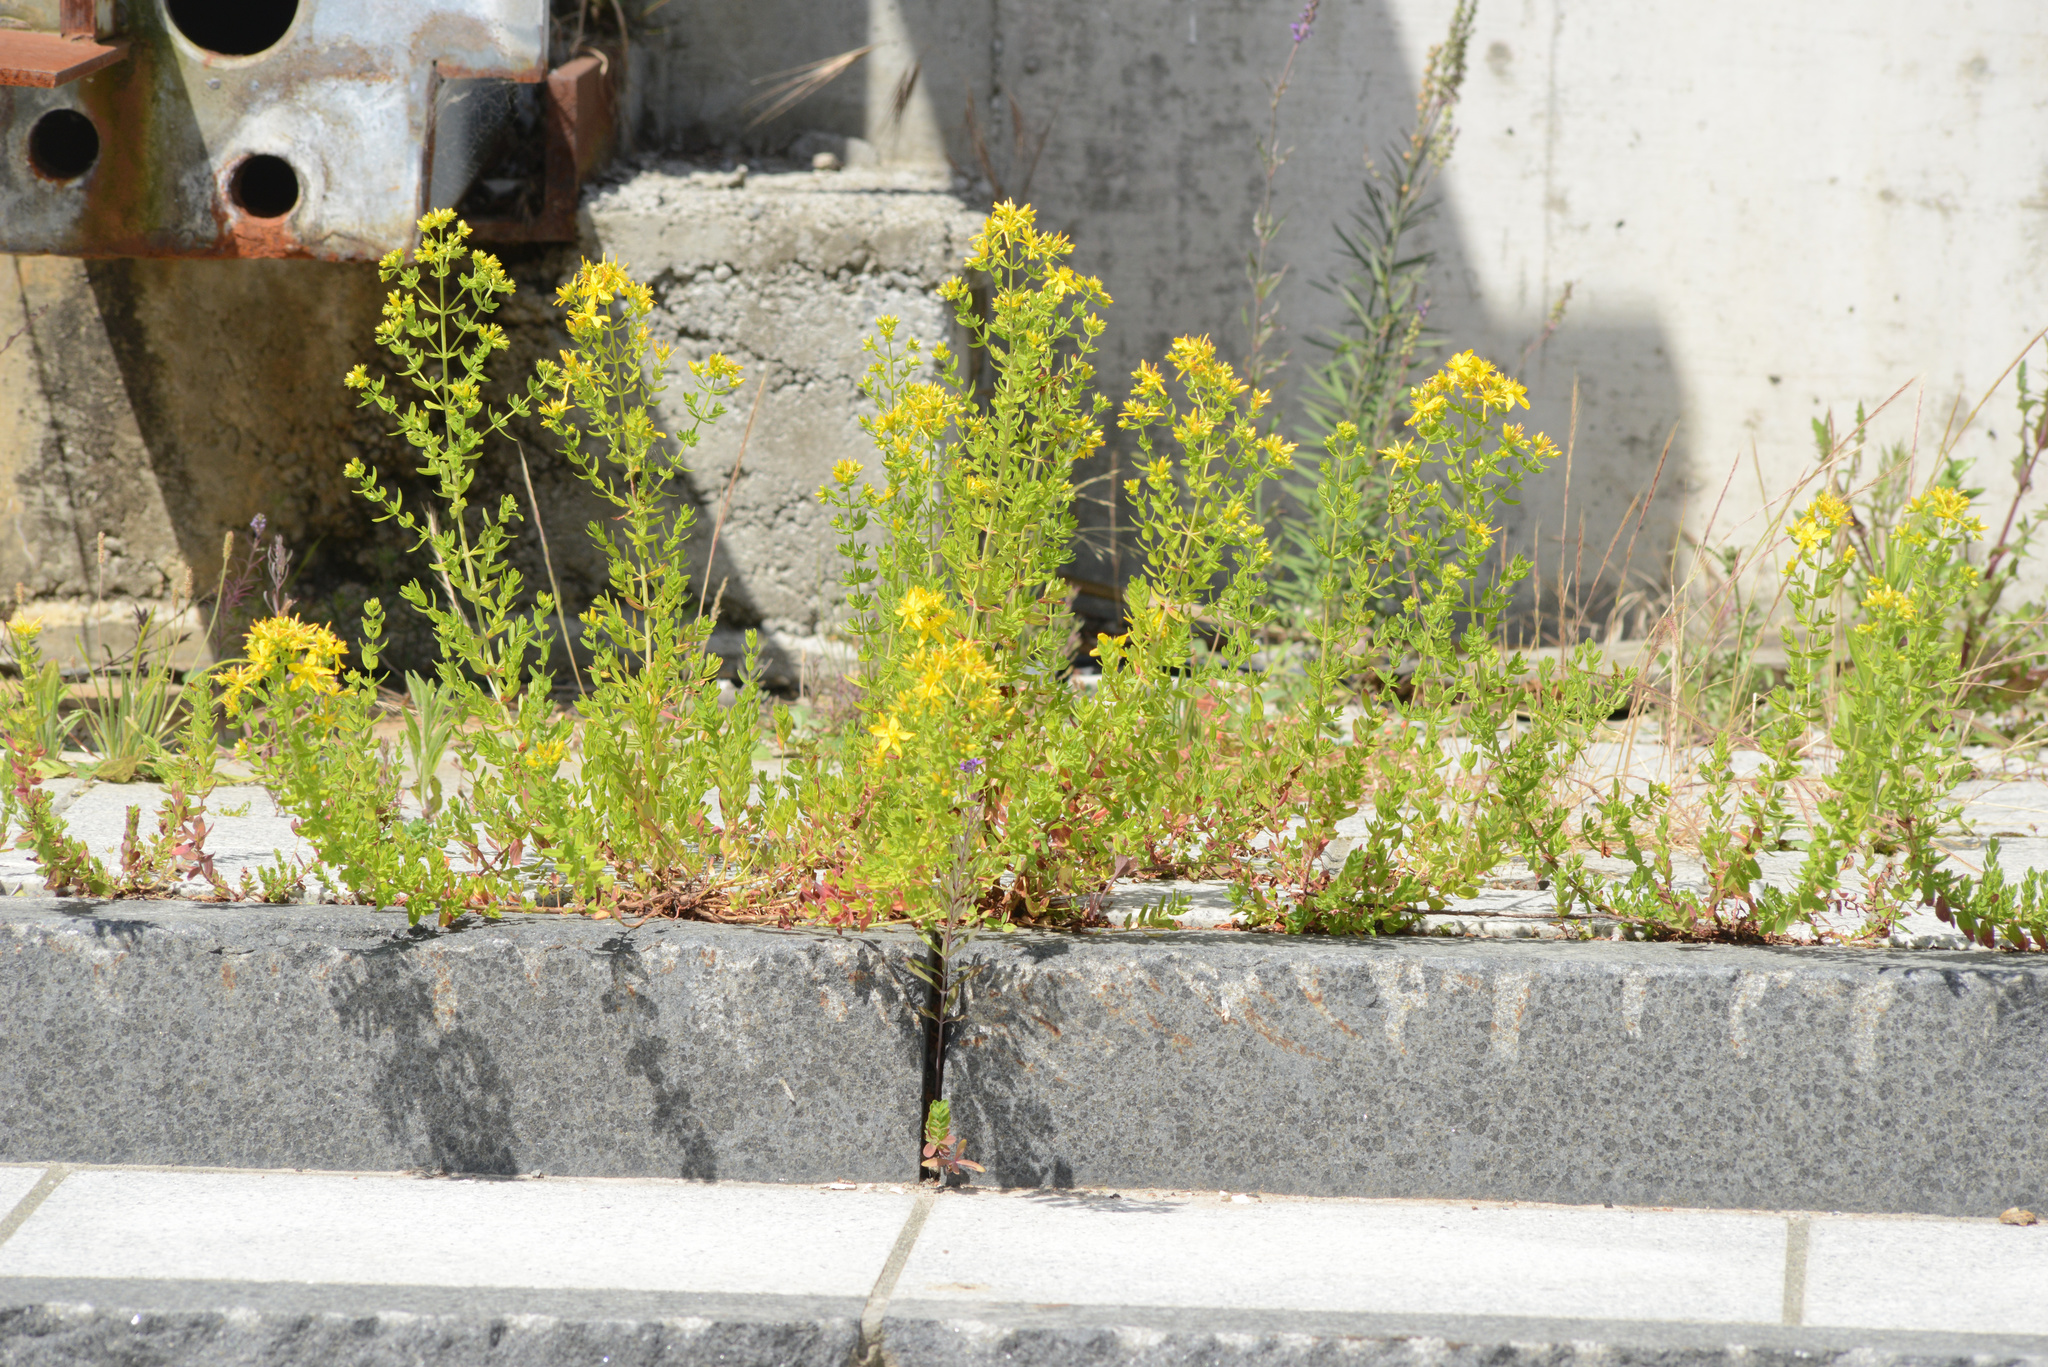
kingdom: Plantae
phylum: Tracheophyta
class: Magnoliopsida
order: Malpighiales
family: Hypericaceae
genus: Hypericum
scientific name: Hypericum perforatum
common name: Common st. johnswort
